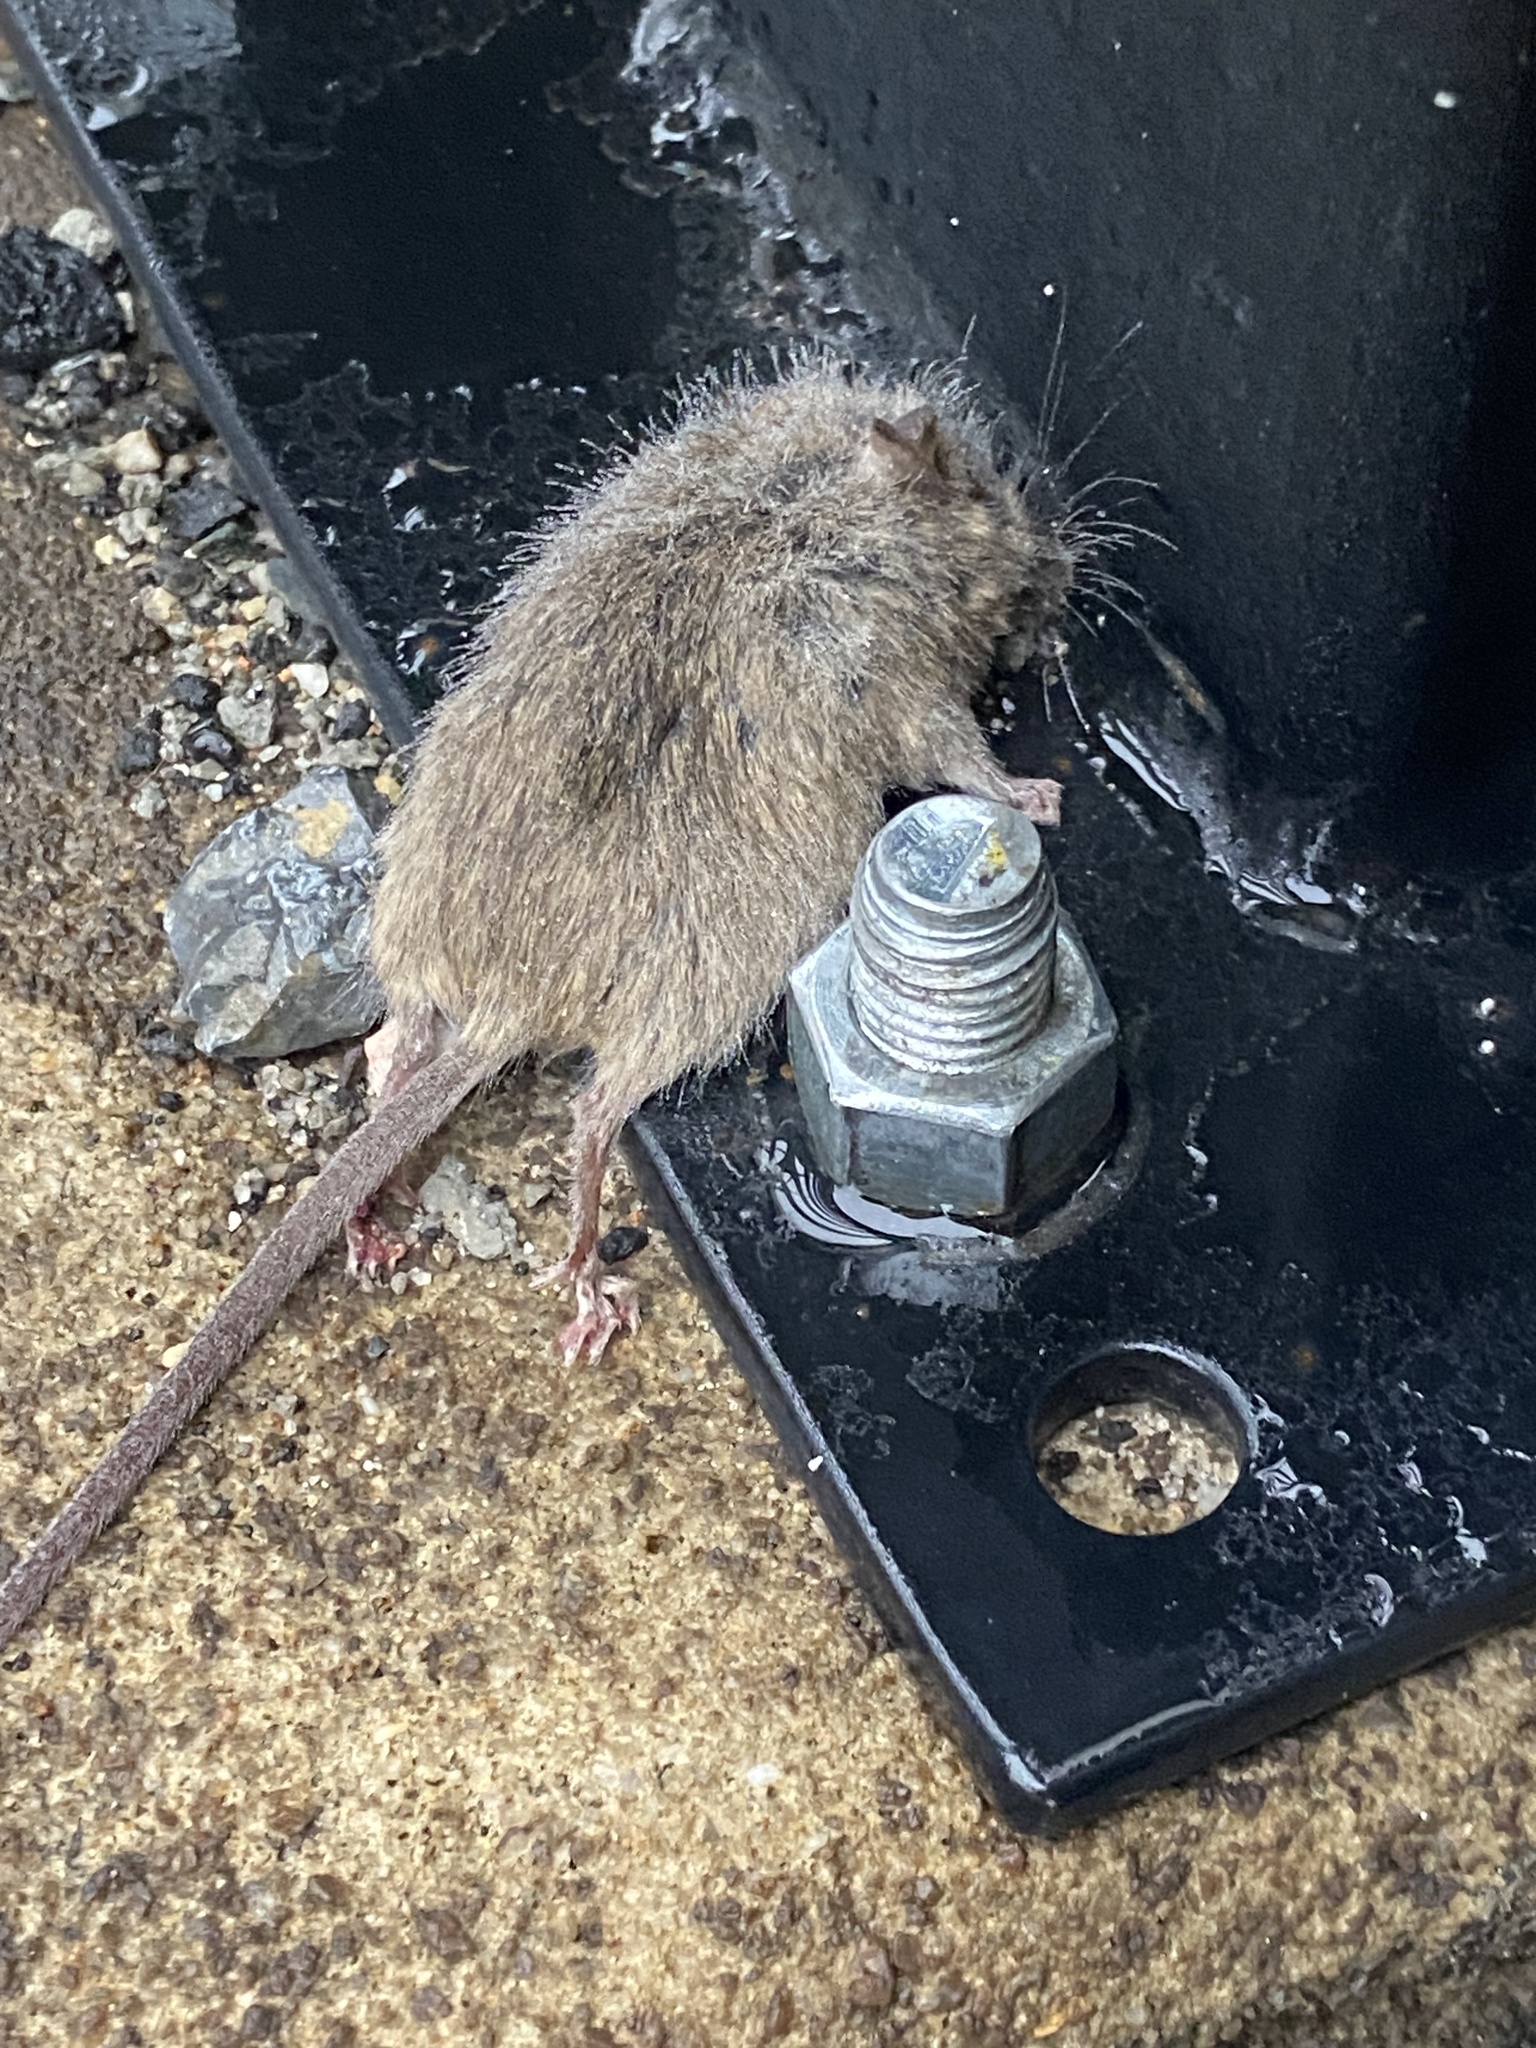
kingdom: Animalia
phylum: Chordata
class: Mammalia
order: Rodentia
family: Muridae
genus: Rattus
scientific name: Rattus norvegicus
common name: Brown rat
